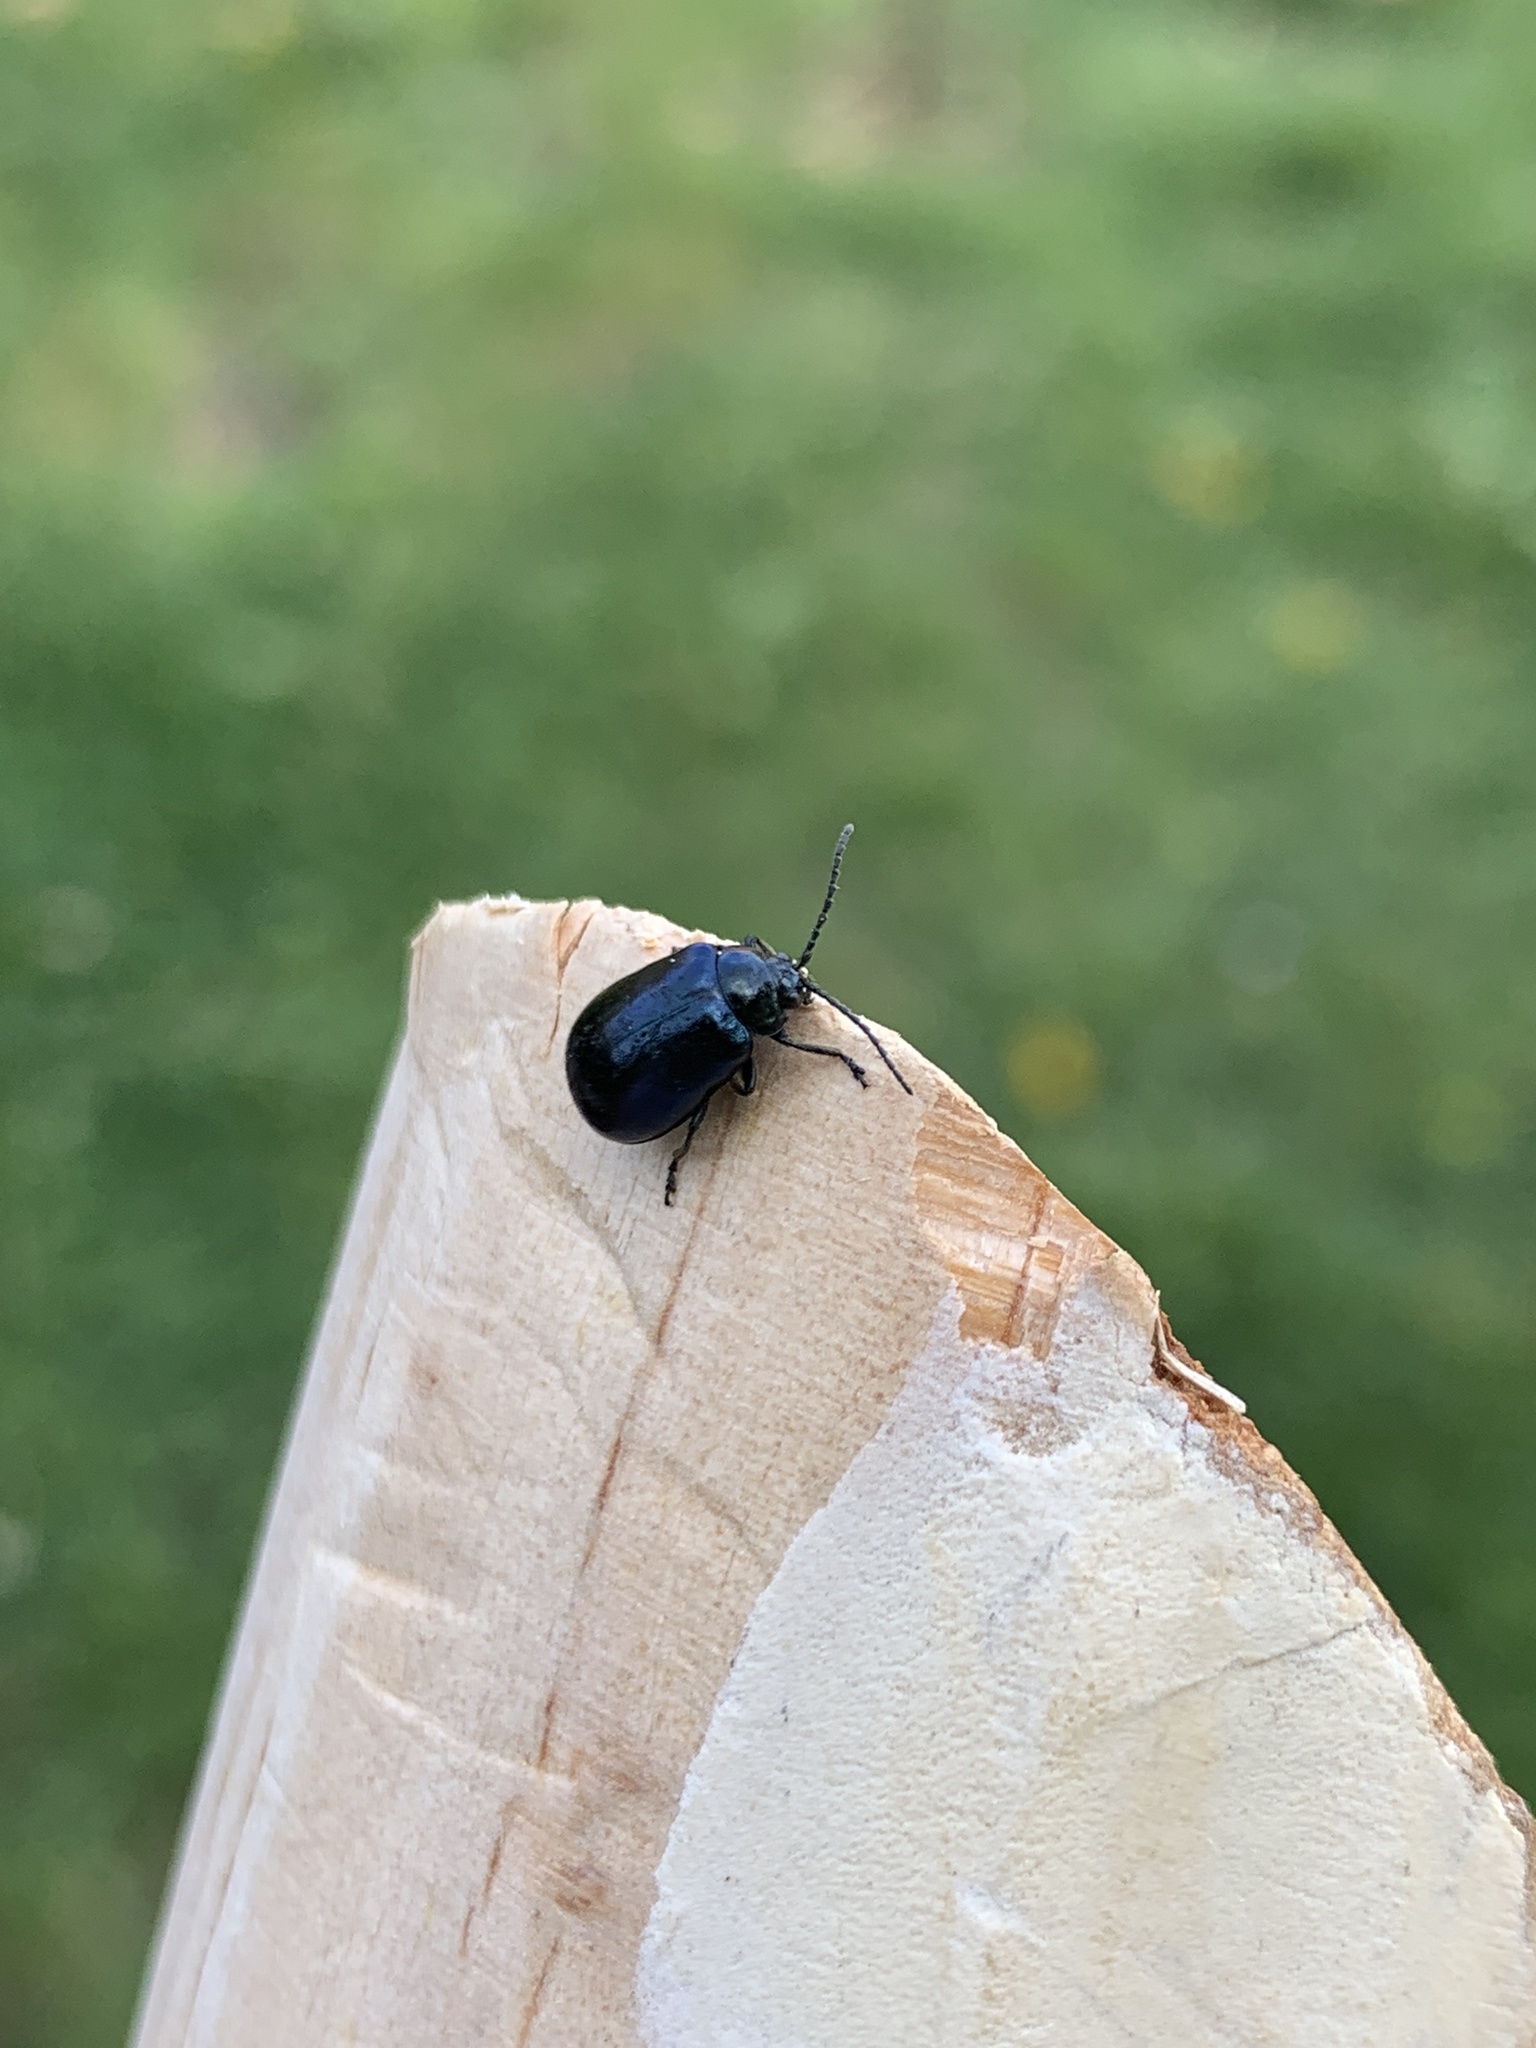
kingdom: Animalia
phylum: Arthropoda
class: Insecta
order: Coleoptera
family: Chrysomelidae
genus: Agelastica
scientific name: Agelastica alni
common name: Alder leaf beetle
